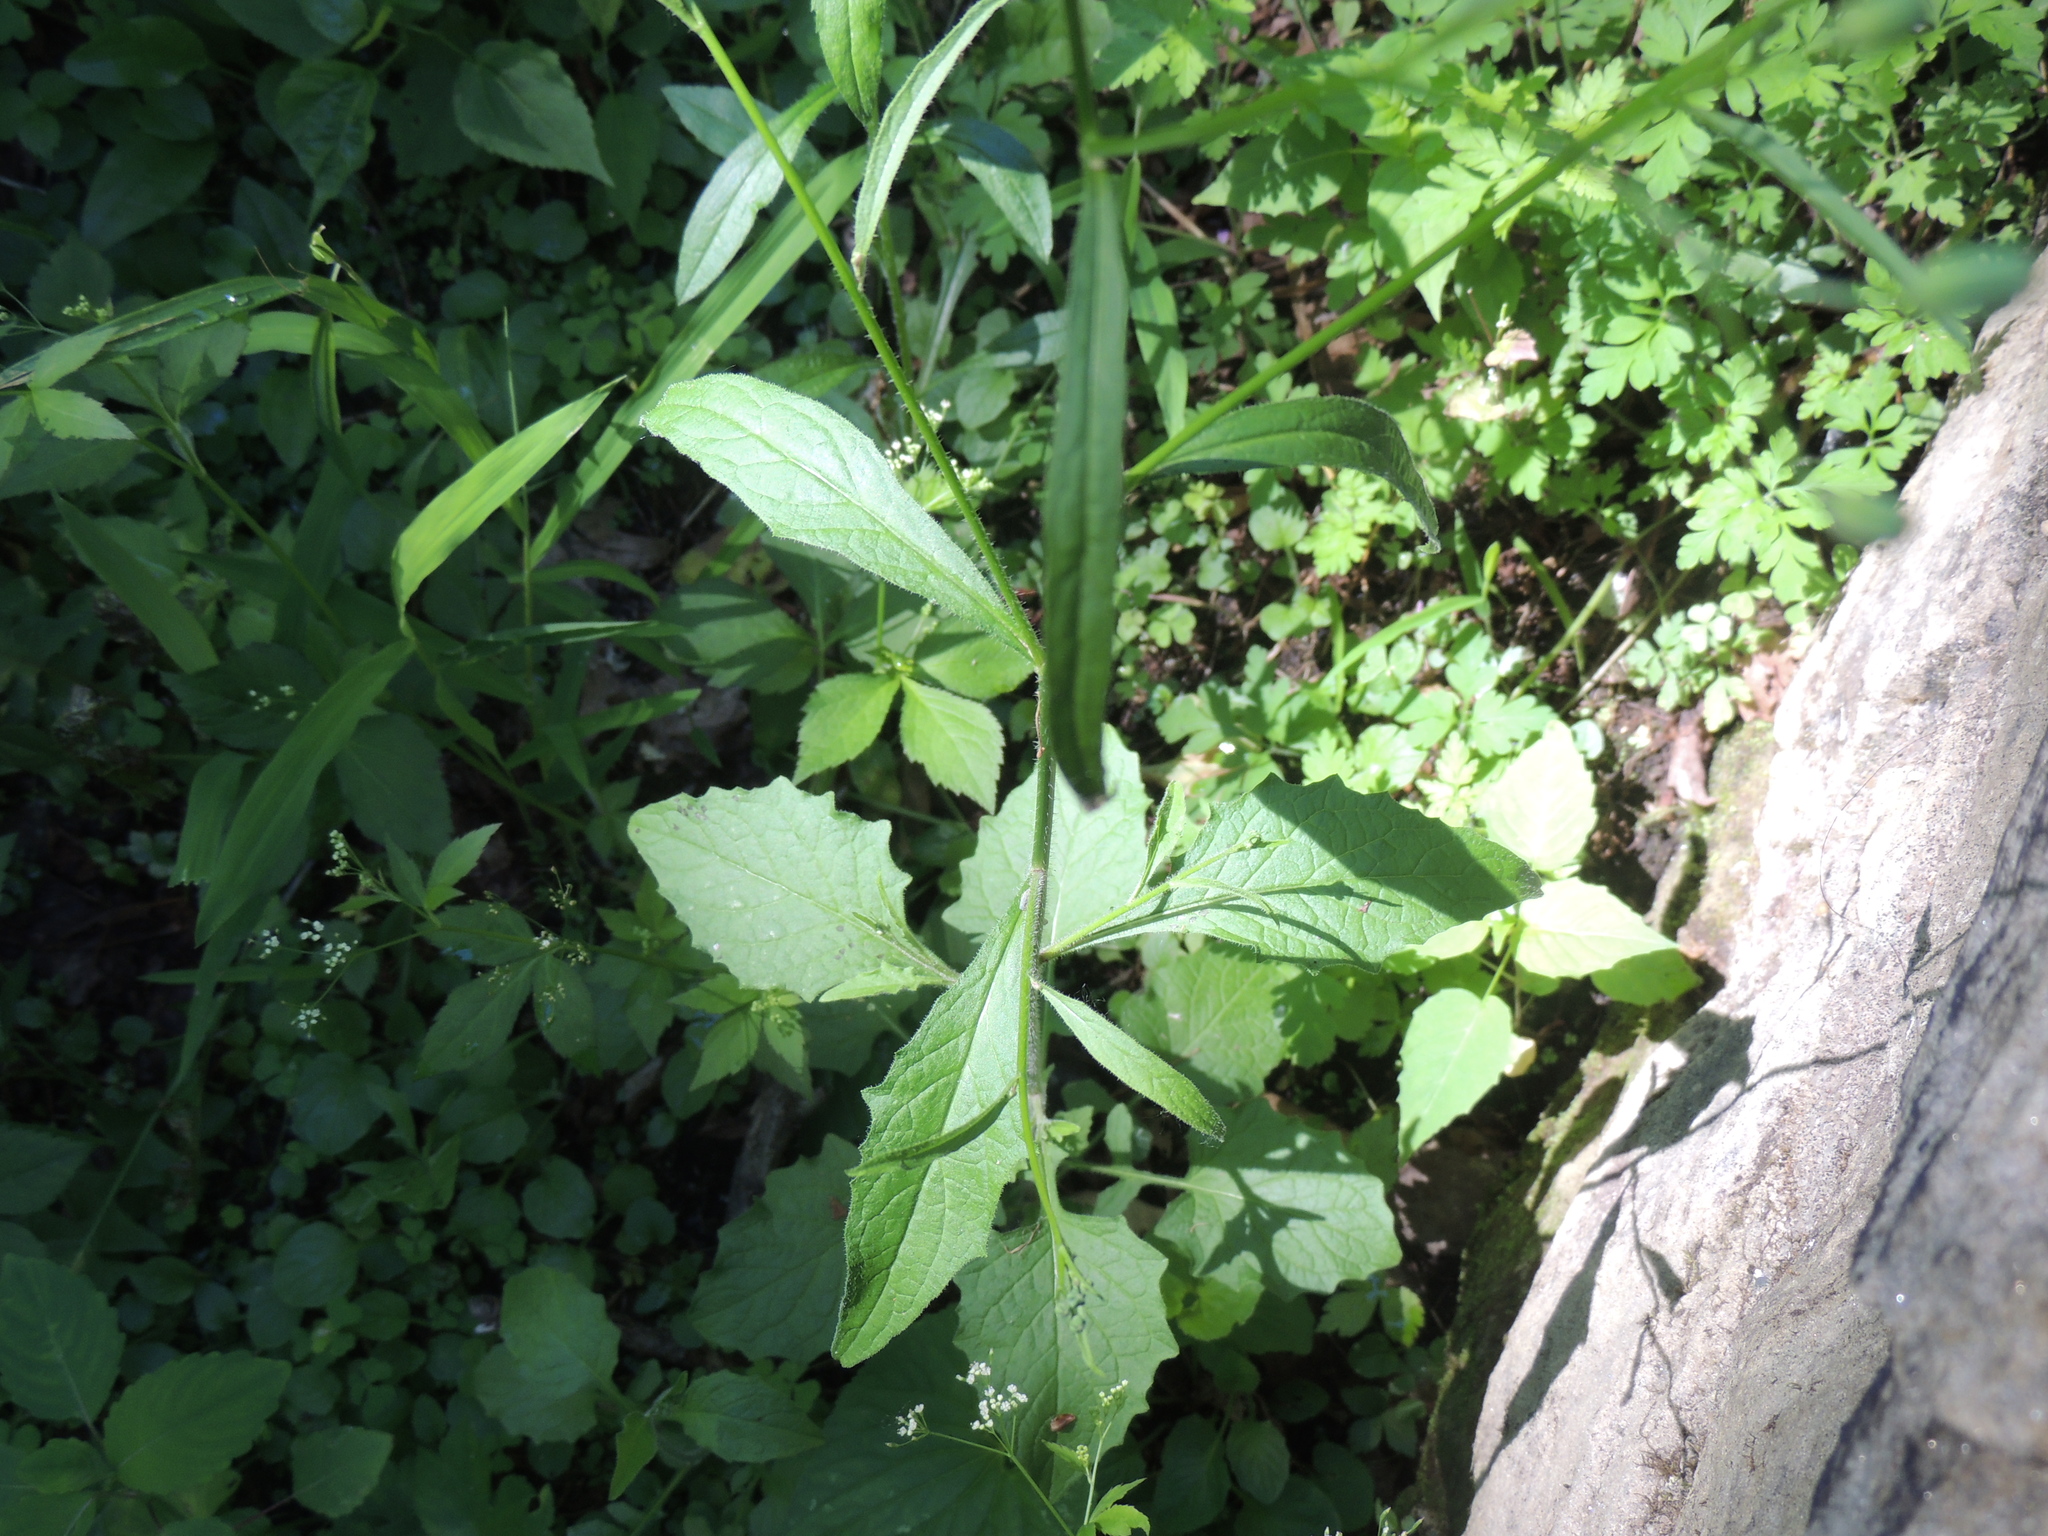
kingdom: Plantae
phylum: Tracheophyta
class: Magnoliopsida
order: Asterales
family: Asteraceae
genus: Lapsana
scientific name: Lapsana communis
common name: Nipplewort
